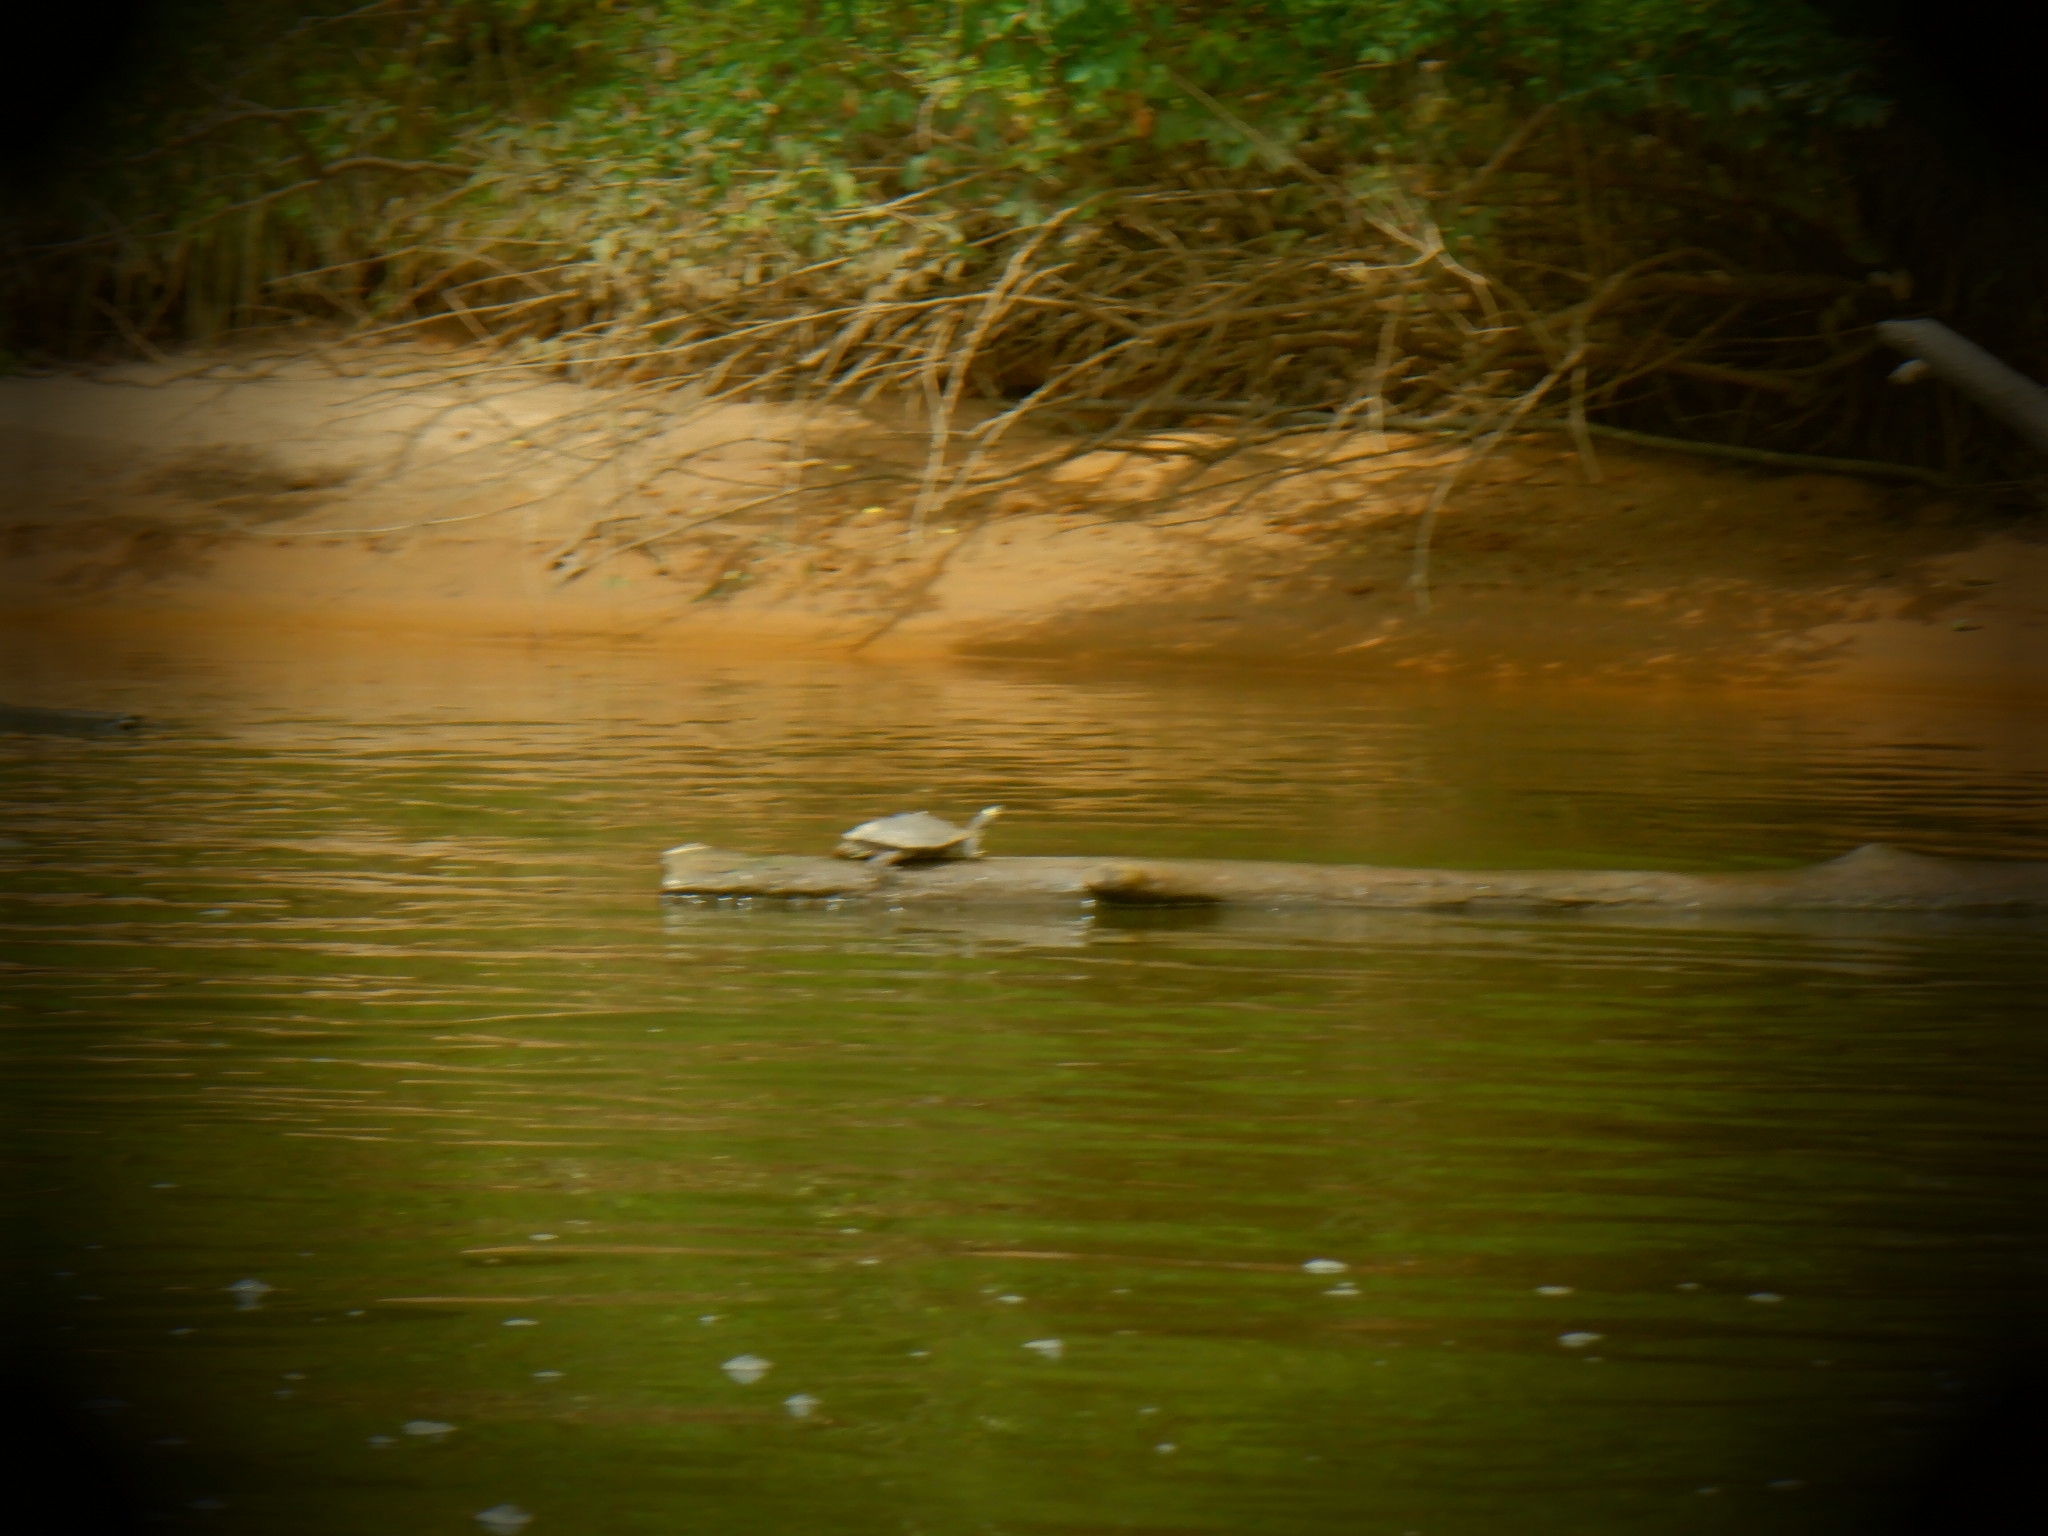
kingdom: Animalia
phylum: Chordata
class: Testudines
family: Emydidae
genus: Graptemys
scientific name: Graptemys ouachitensis
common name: Ouachita map turtle
